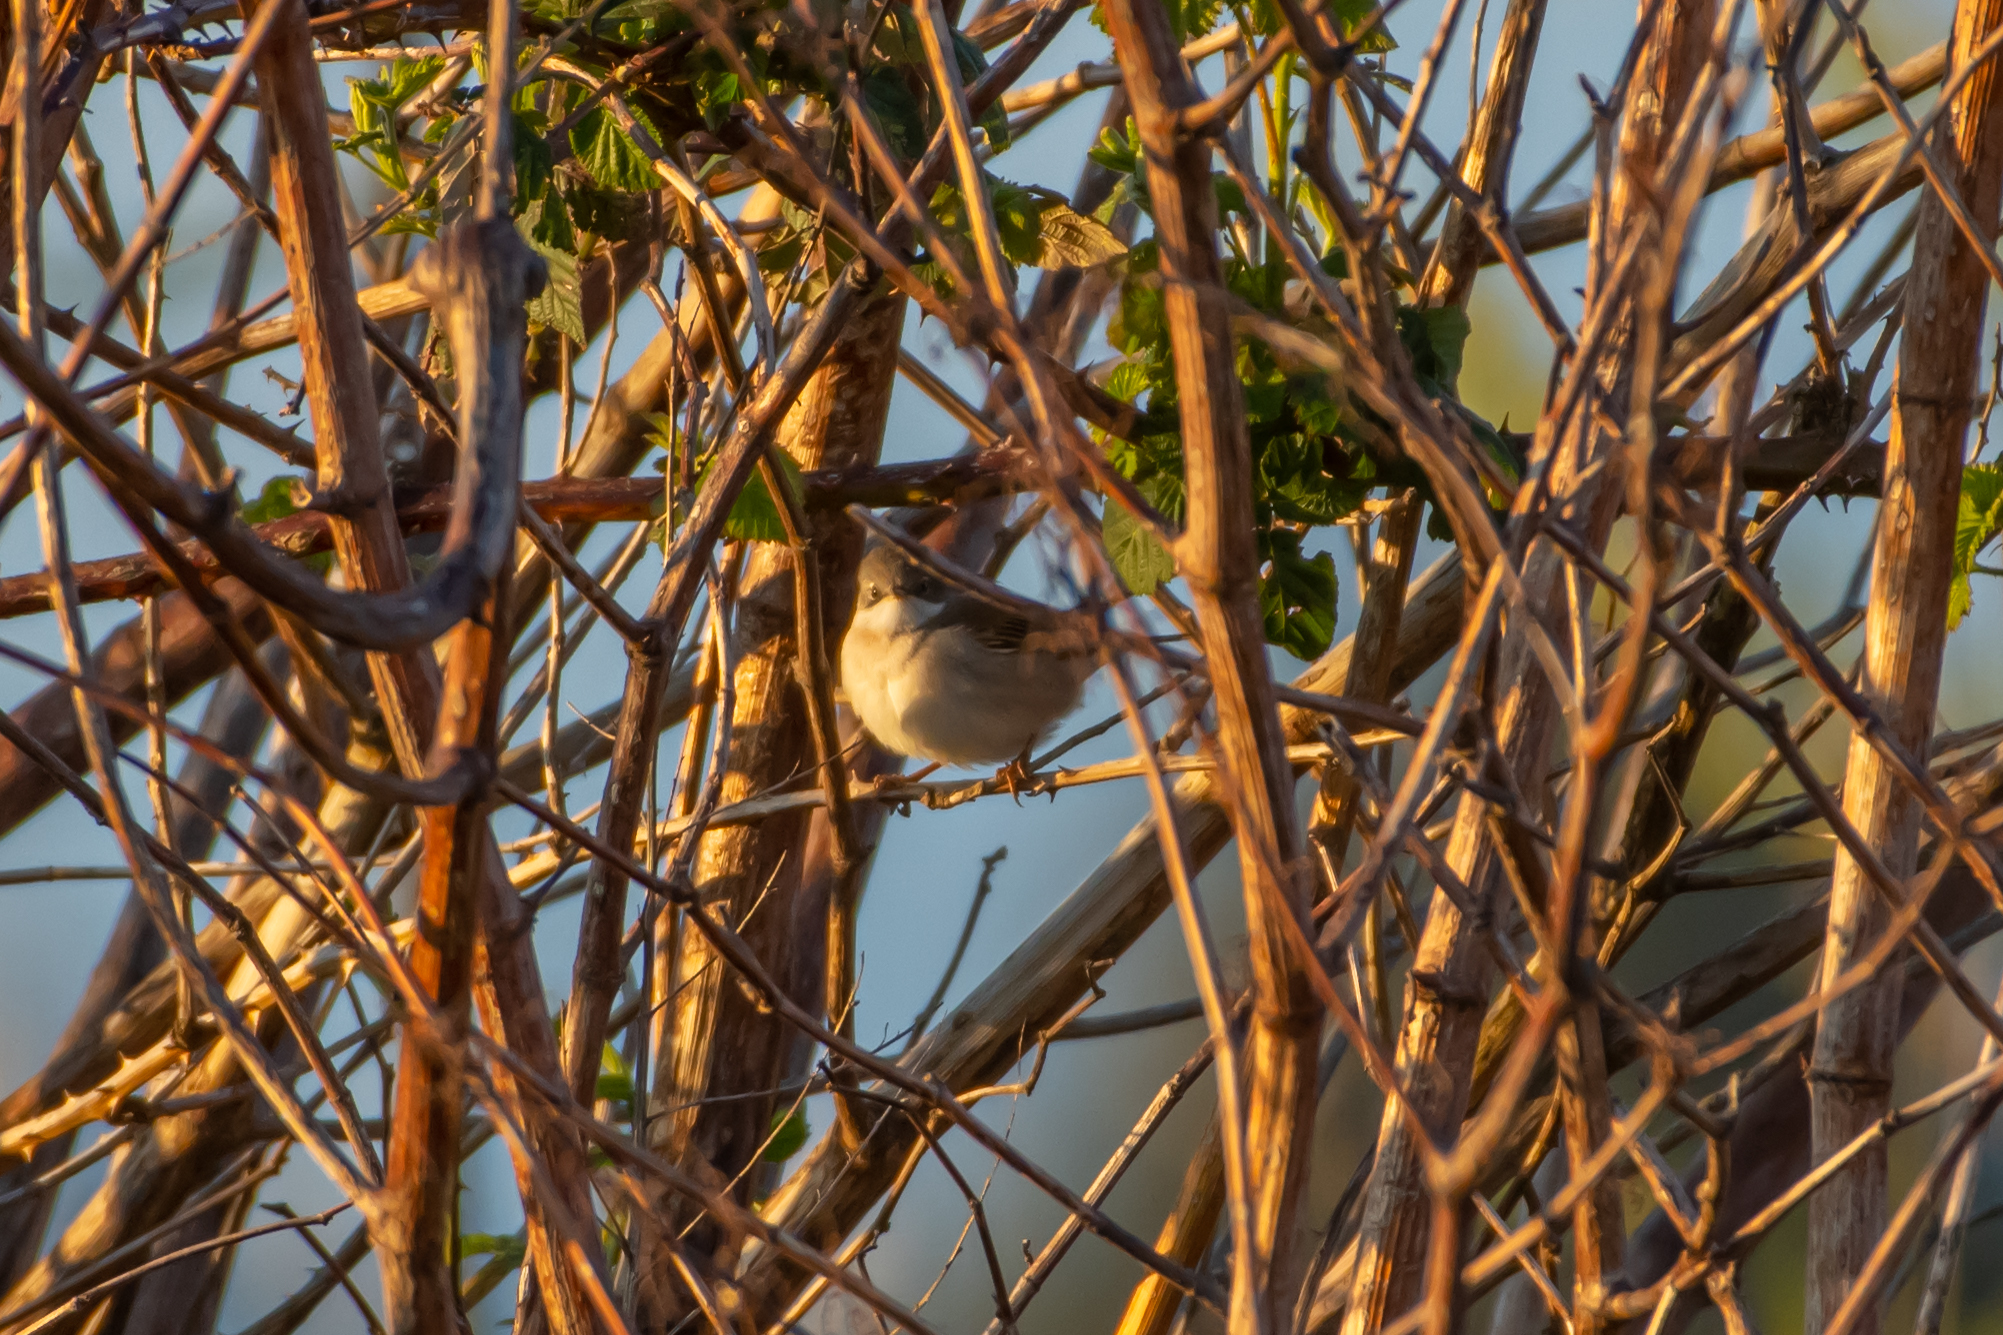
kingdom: Animalia
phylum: Chordata
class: Aves
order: Passeriformes
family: Sylviidae
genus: Sylvia
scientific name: Sylvia communis
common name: Common whitethroat
